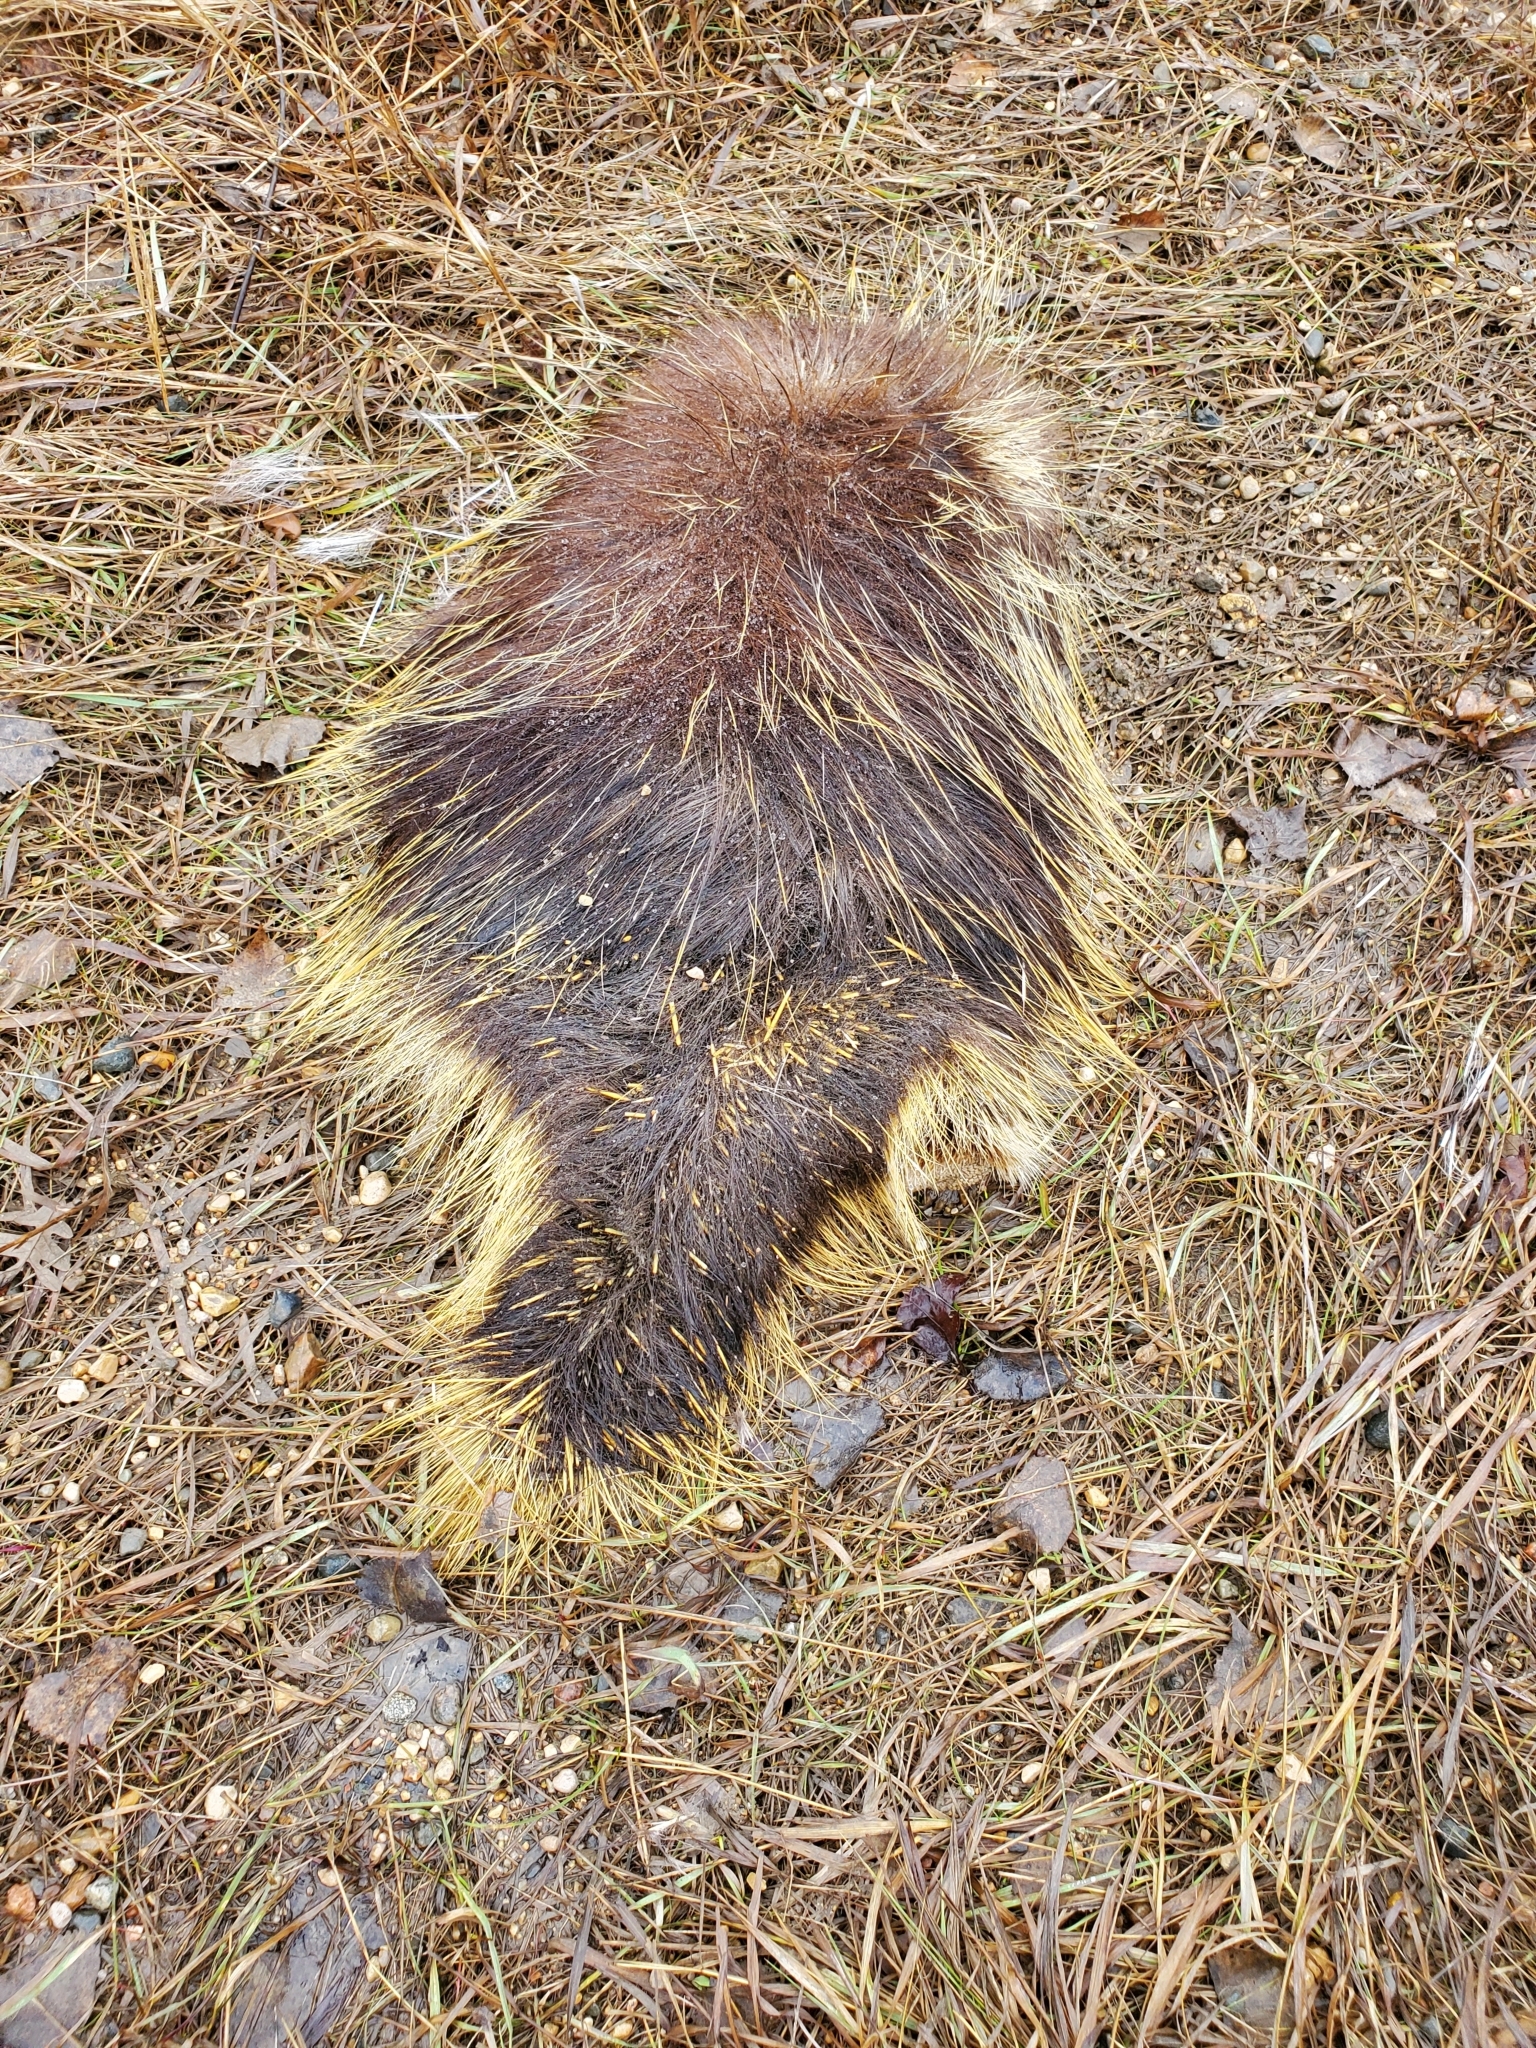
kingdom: Animalia
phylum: Chordata
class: Mammalia
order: Rodentia
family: Erethizontidae
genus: Erethizon
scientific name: Erethizon dorsatus
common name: North american porcupine
